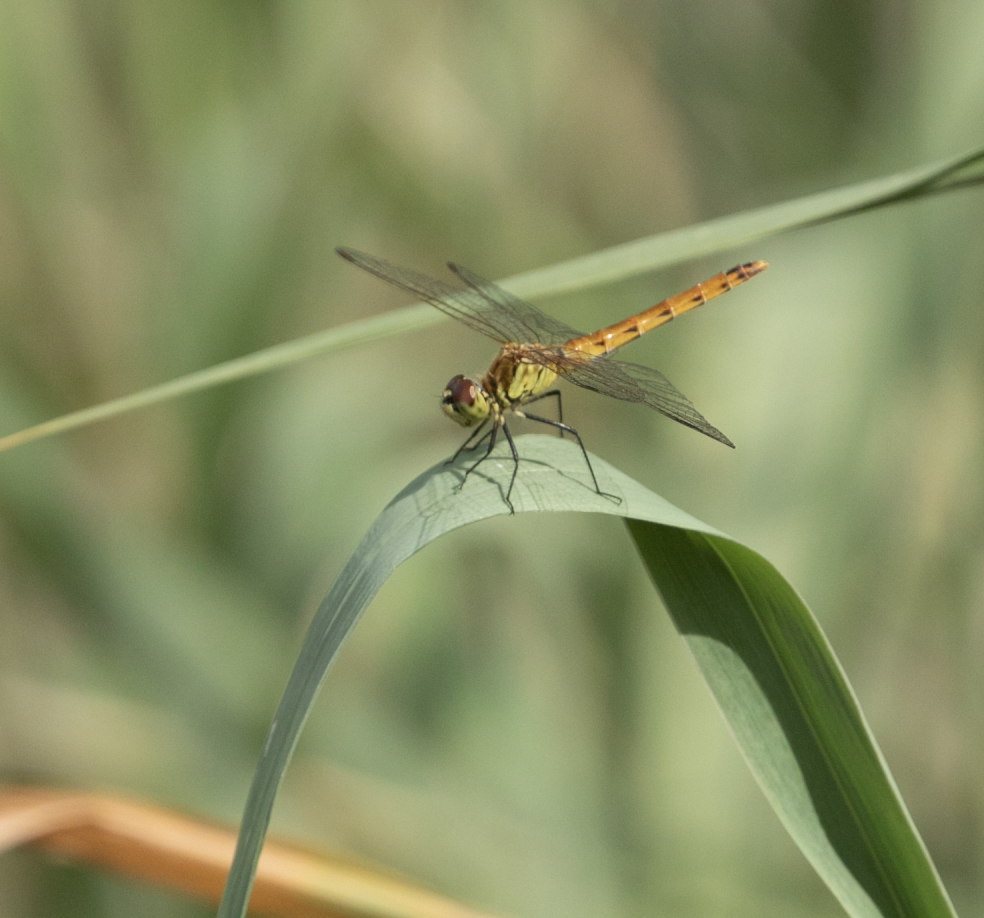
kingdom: Animalia
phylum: Arthropoda
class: Insecta
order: Odonata
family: Libellulidae
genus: Sympetrum
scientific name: Sympetrum depressiusculum
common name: Spotted darter
